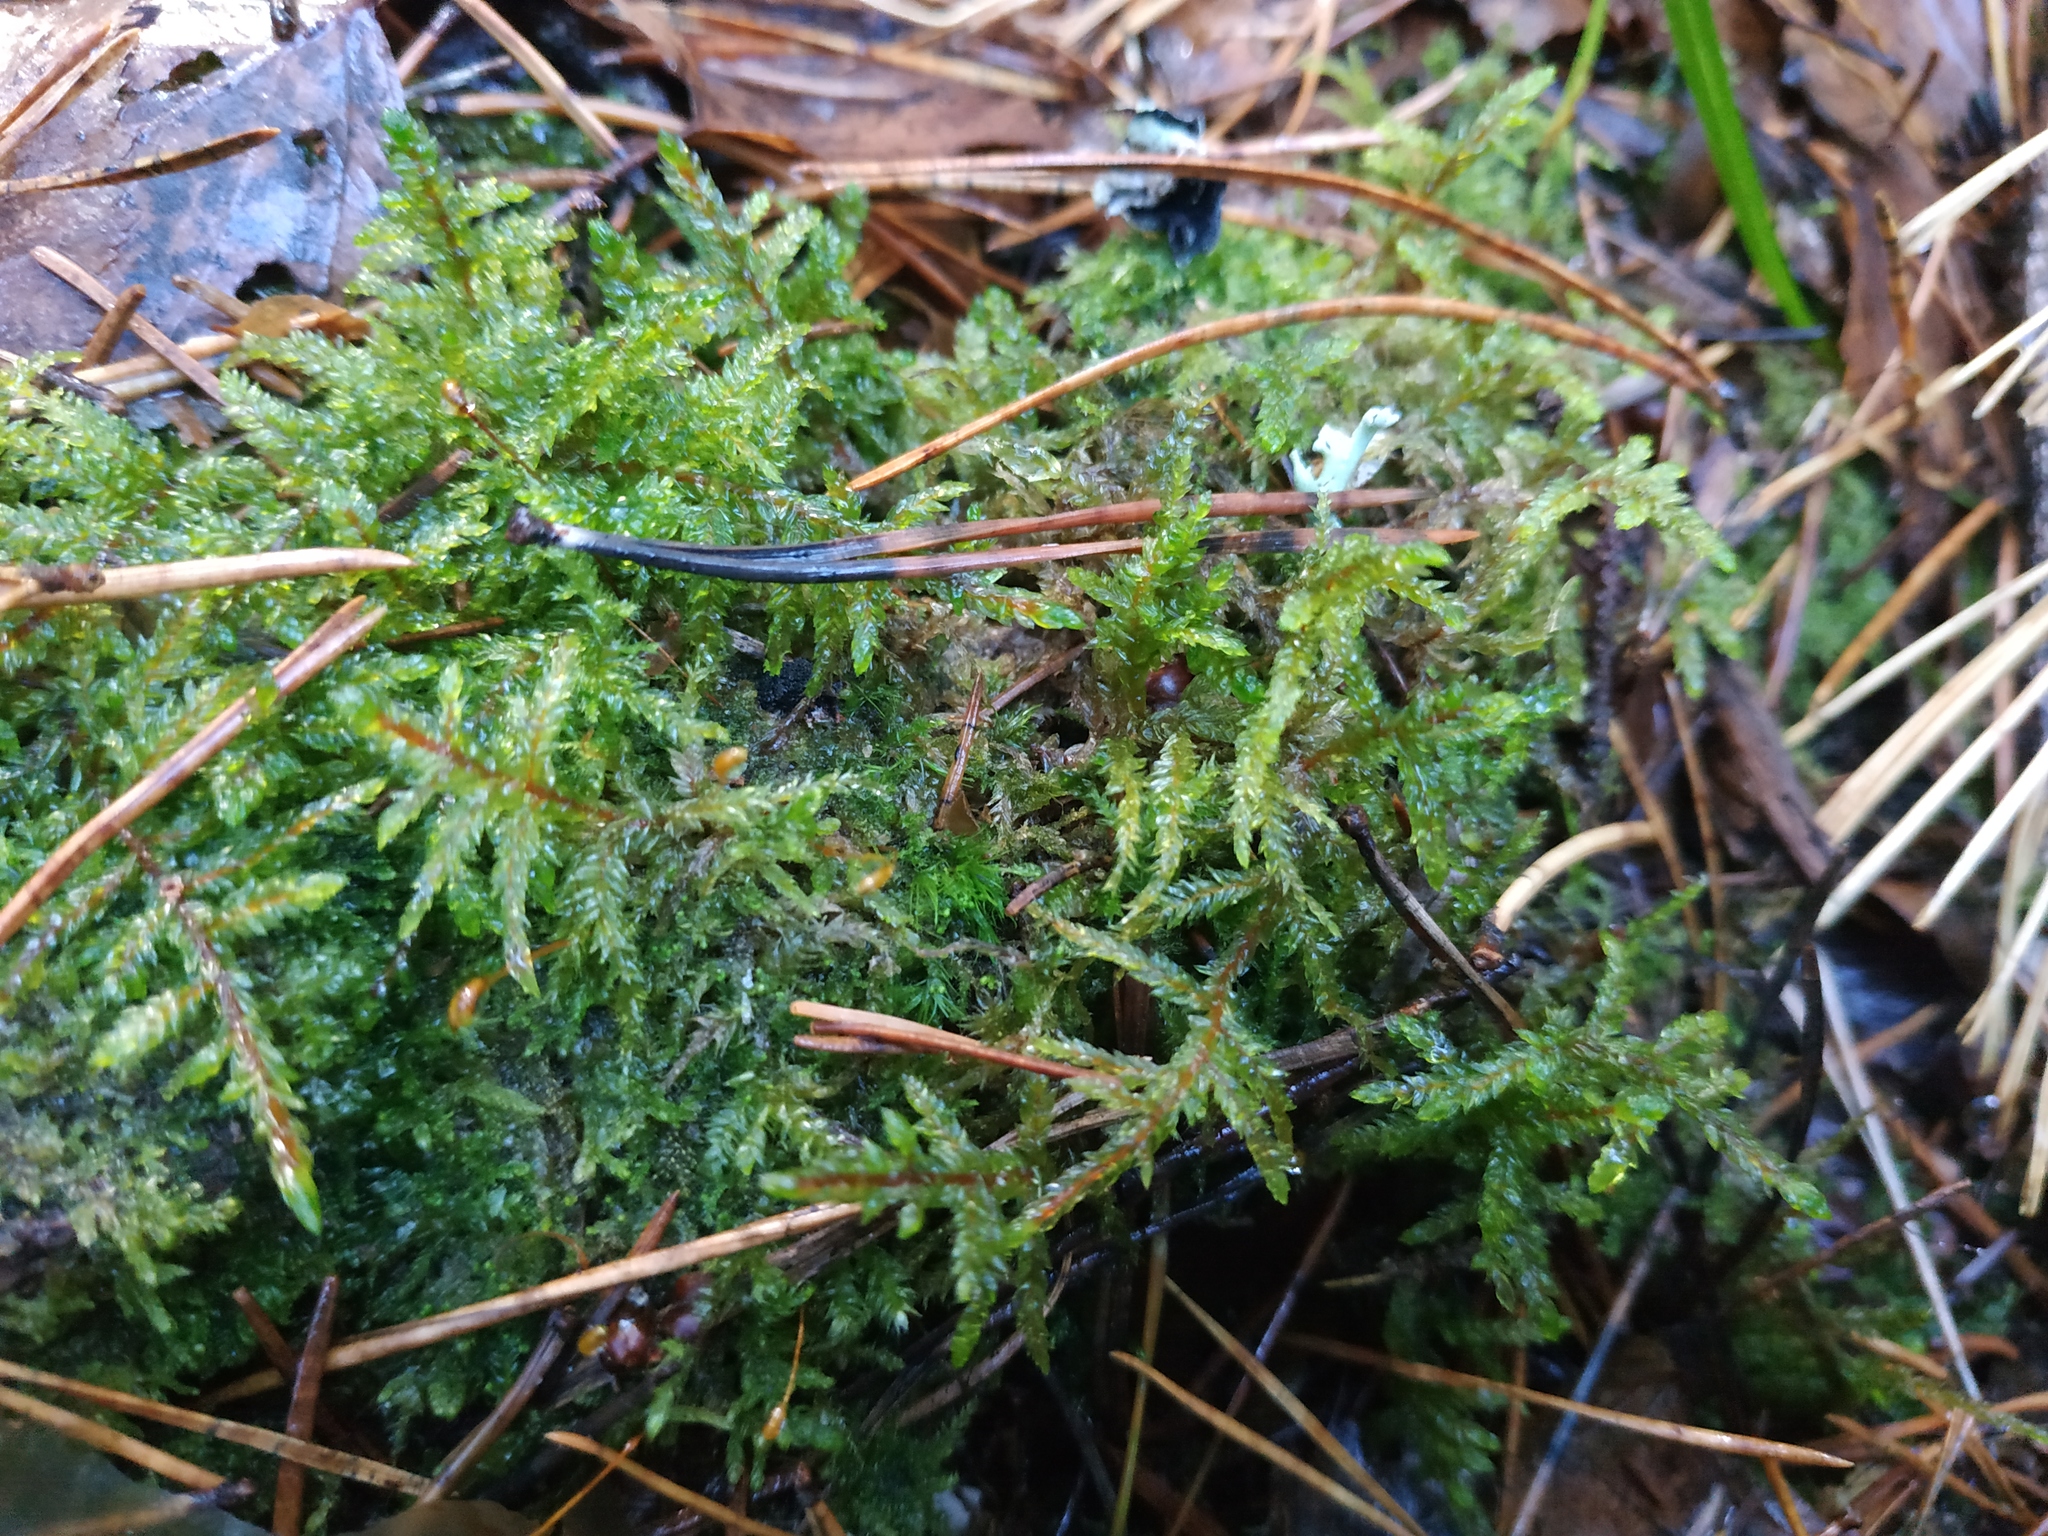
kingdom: Plantae
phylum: Bryophyta
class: Bryopsida
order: Hypnales
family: Hylocomiaceae
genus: Hylocomium
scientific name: Hylocomium splendens
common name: Stairstep moss
